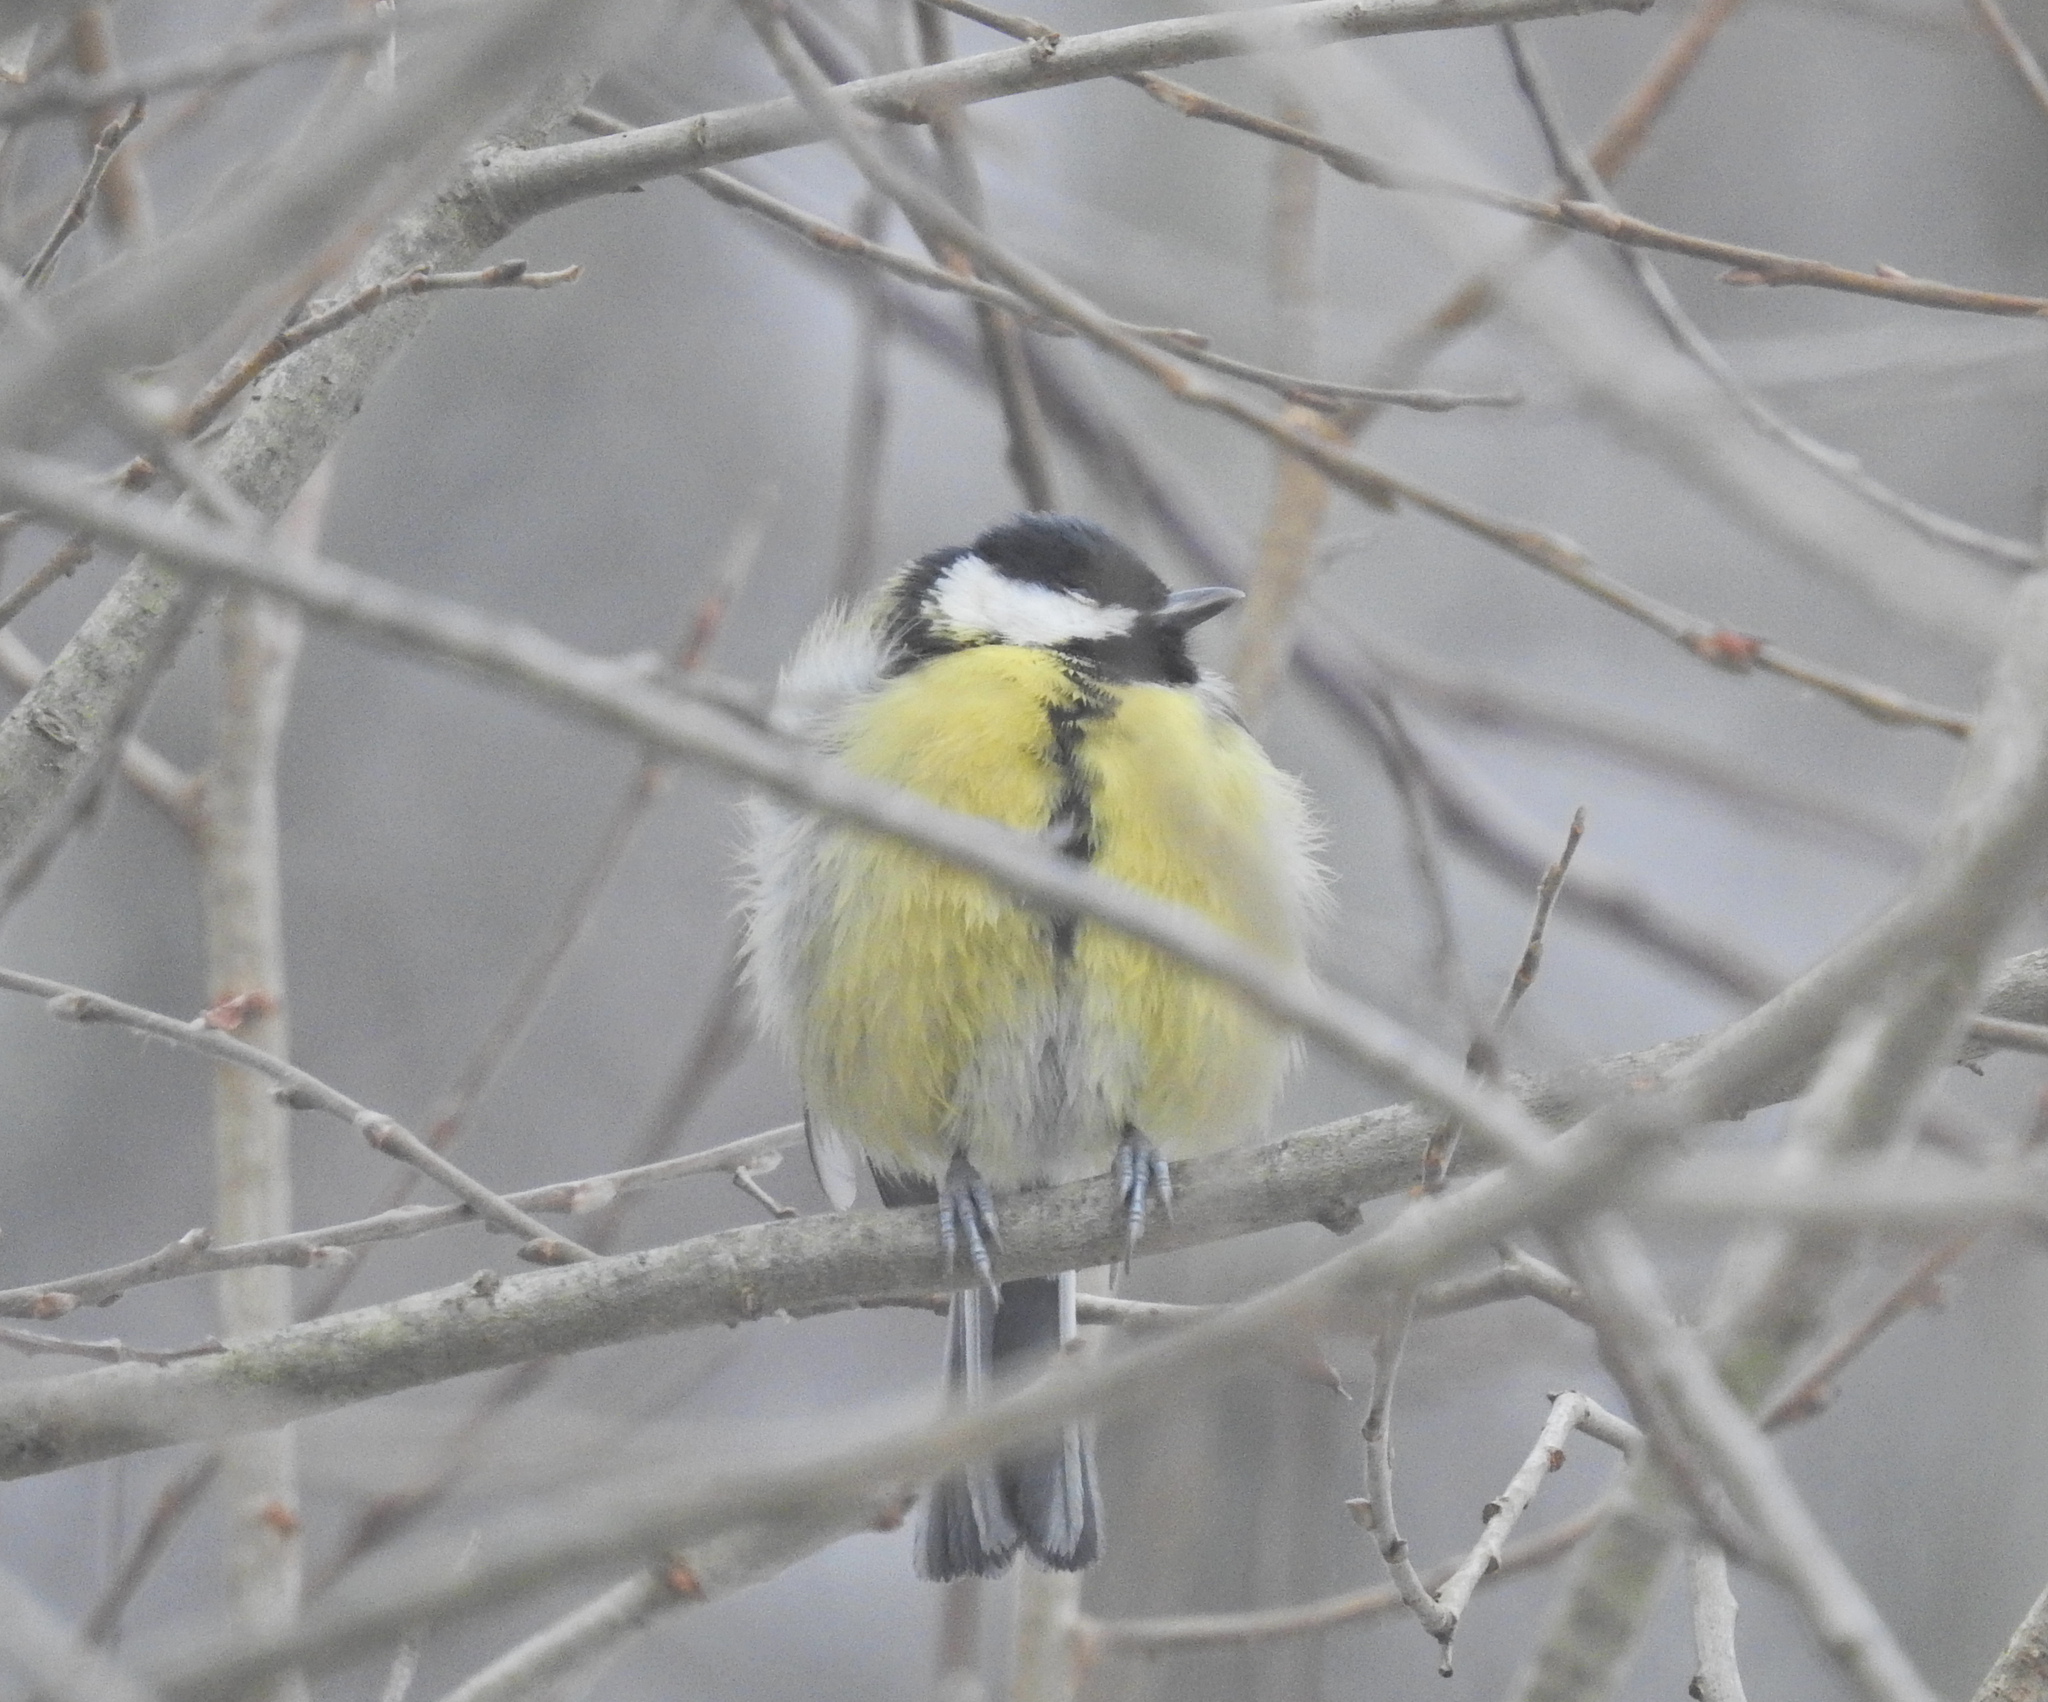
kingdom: Animalia
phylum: Chordata
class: Aves
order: Passeriformes
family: Paridae
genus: Parus
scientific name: Parus major
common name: Great tit
